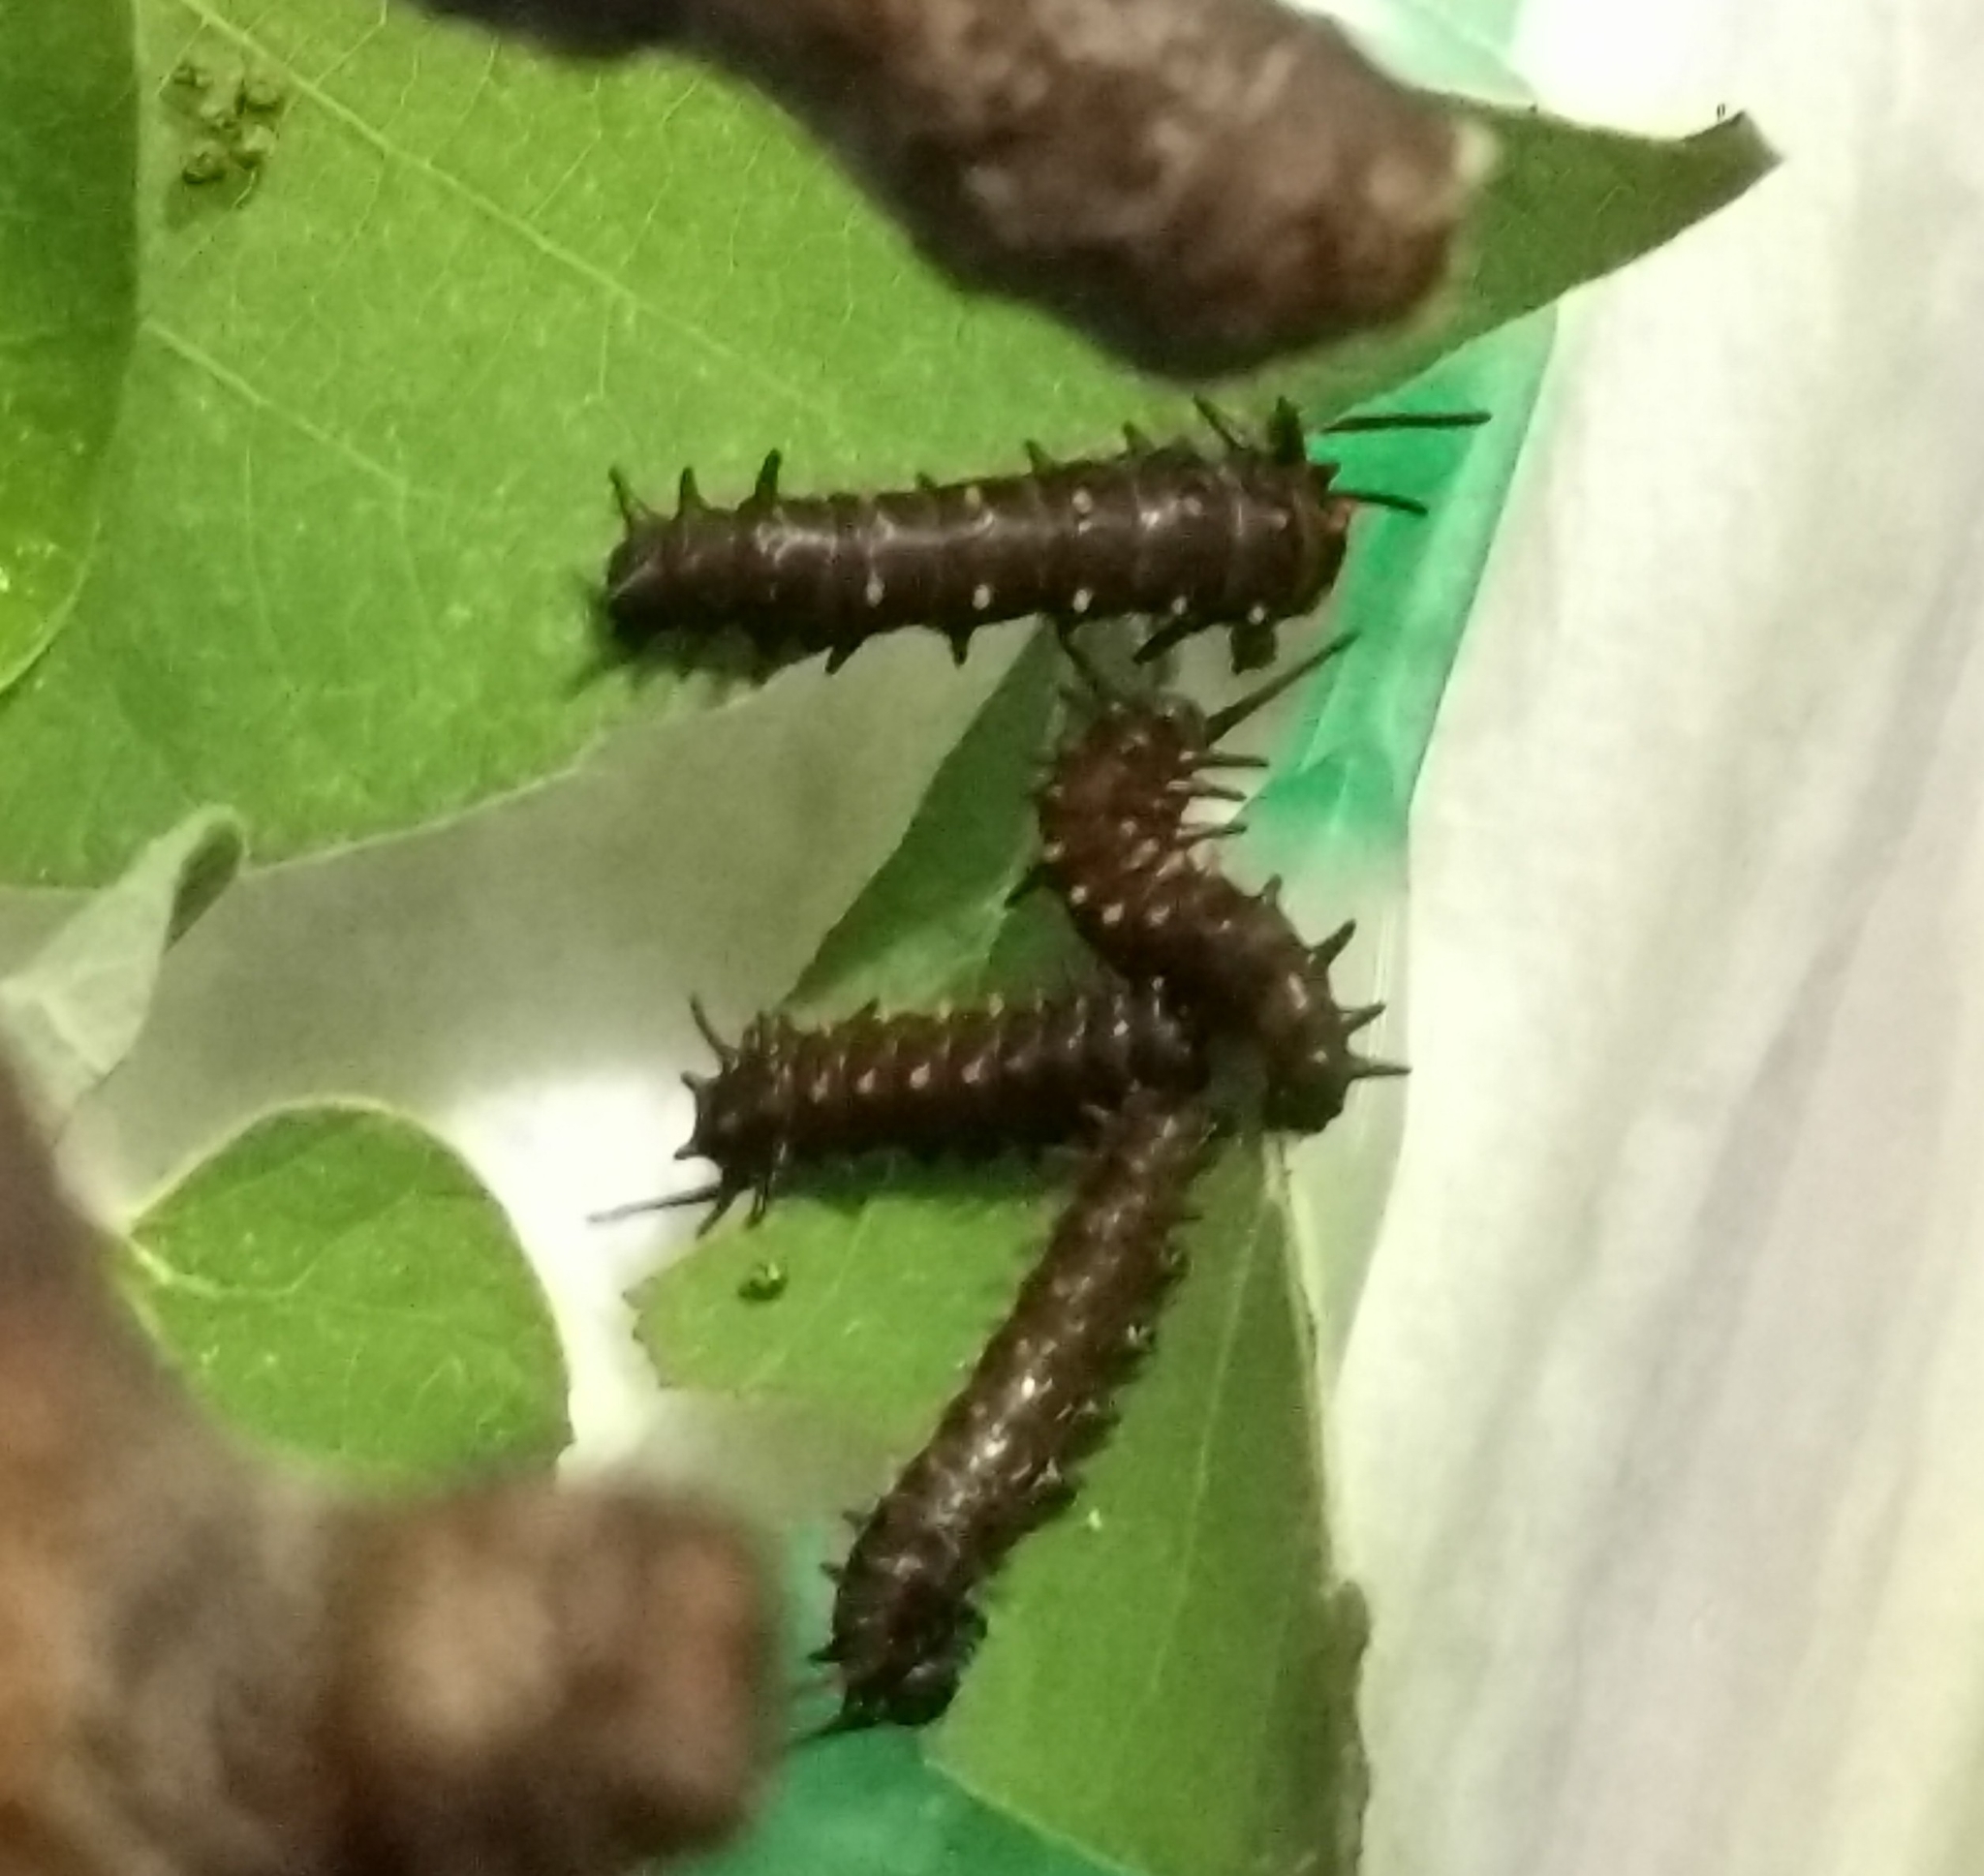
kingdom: Animalia
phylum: Arthropoda
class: Insecta
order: Lepidoptera
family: Papilionidae
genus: Battus
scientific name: Battus philenor
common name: Pipevine swallowtail
